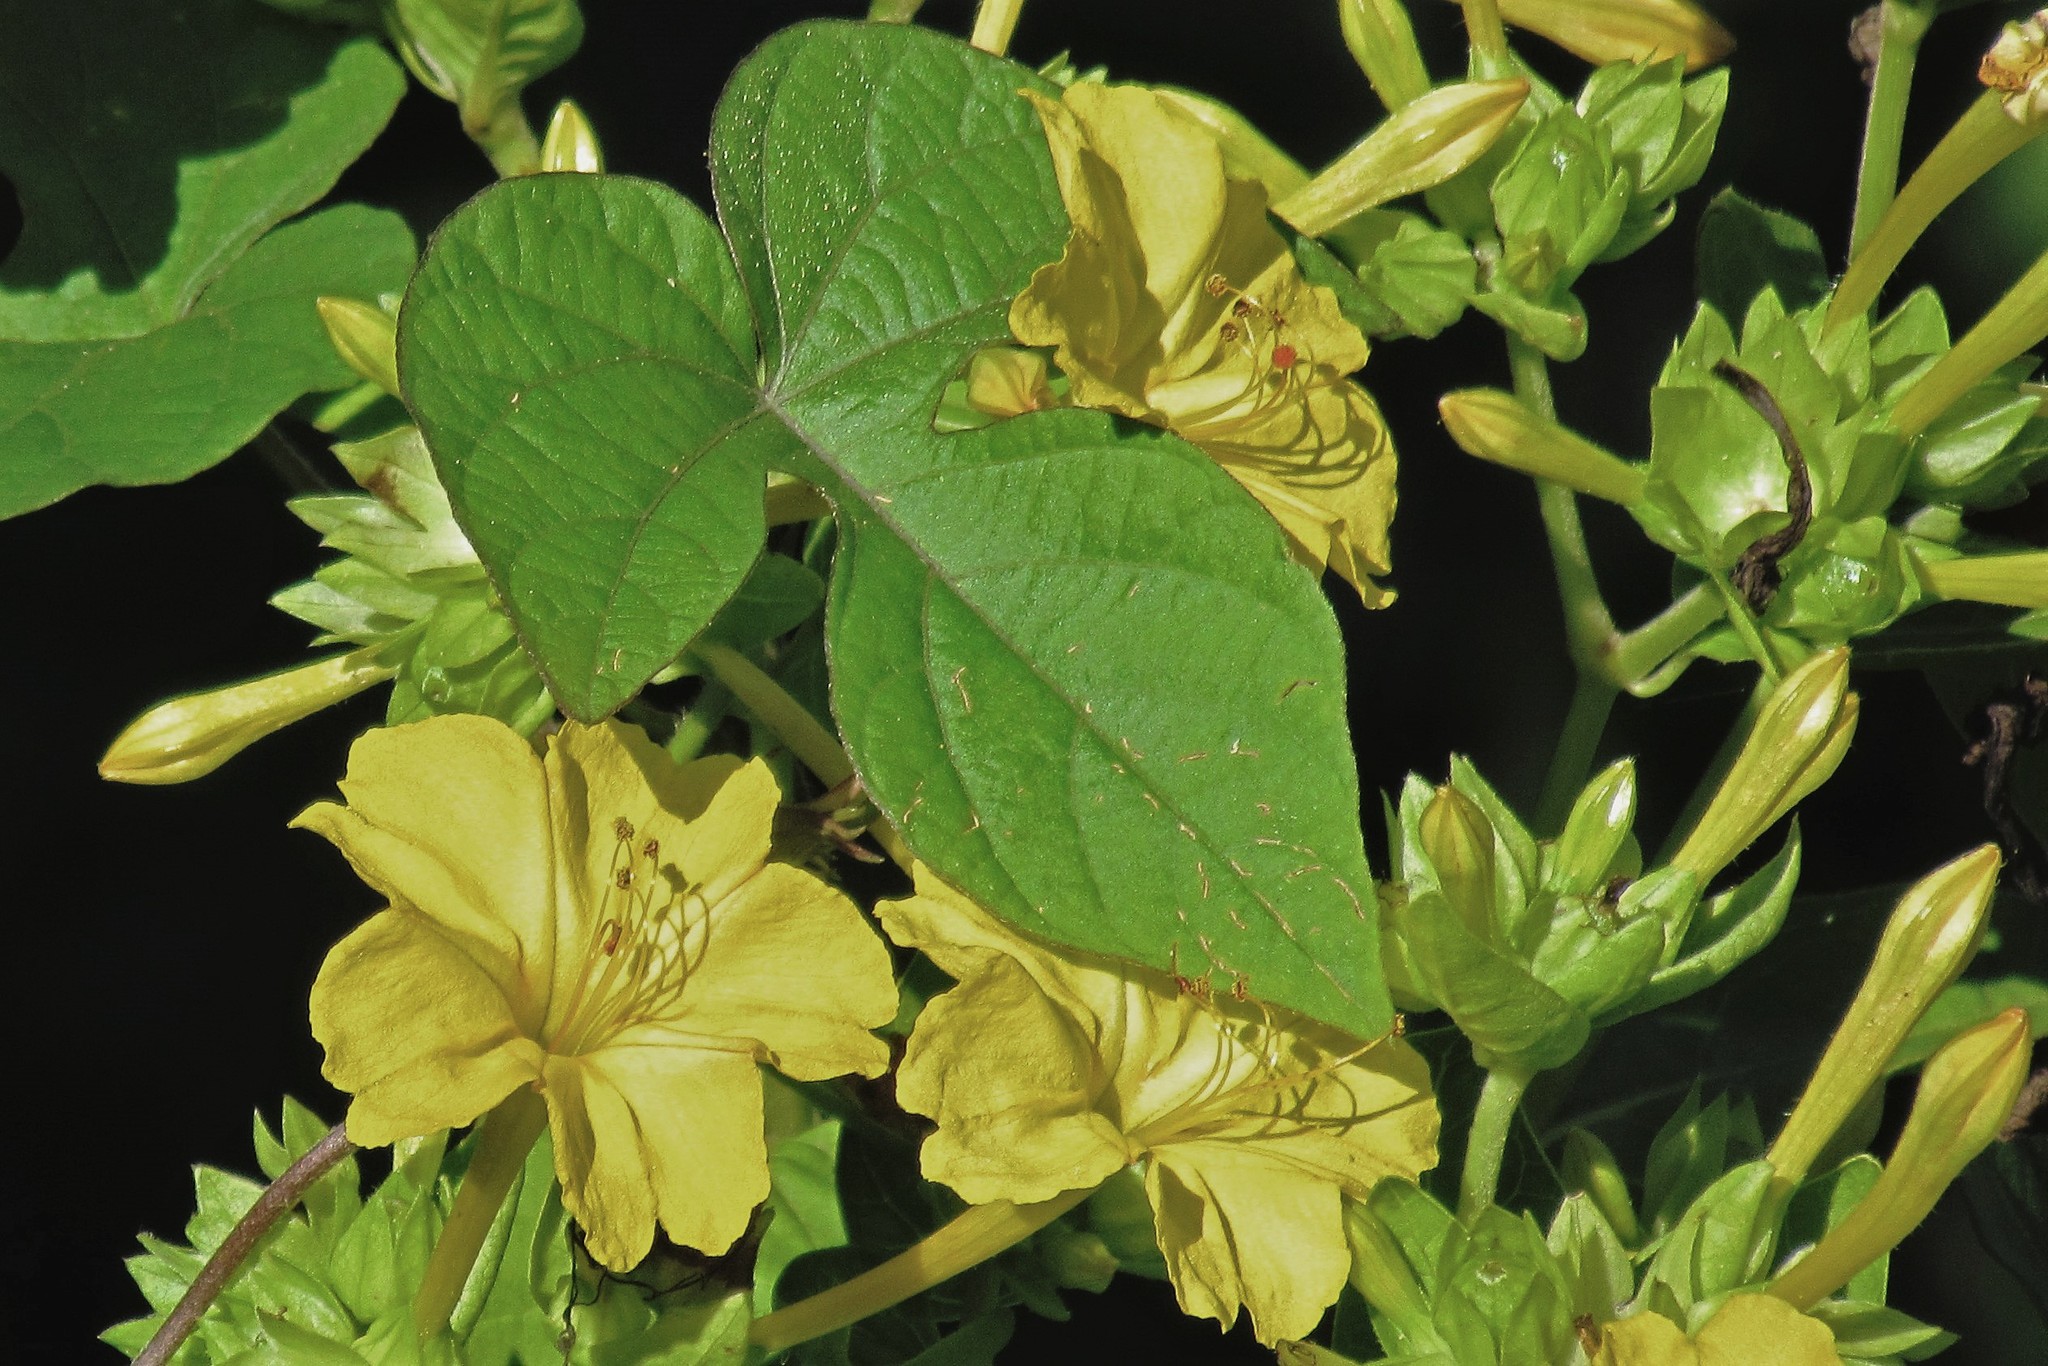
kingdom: Plantae
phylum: Tracheophyta
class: Magnoliopsida
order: Caryophyllales
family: Nyctaginaceae
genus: Mirabilis
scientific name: Mirabilis jalapa
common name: Marvel-of-peru
